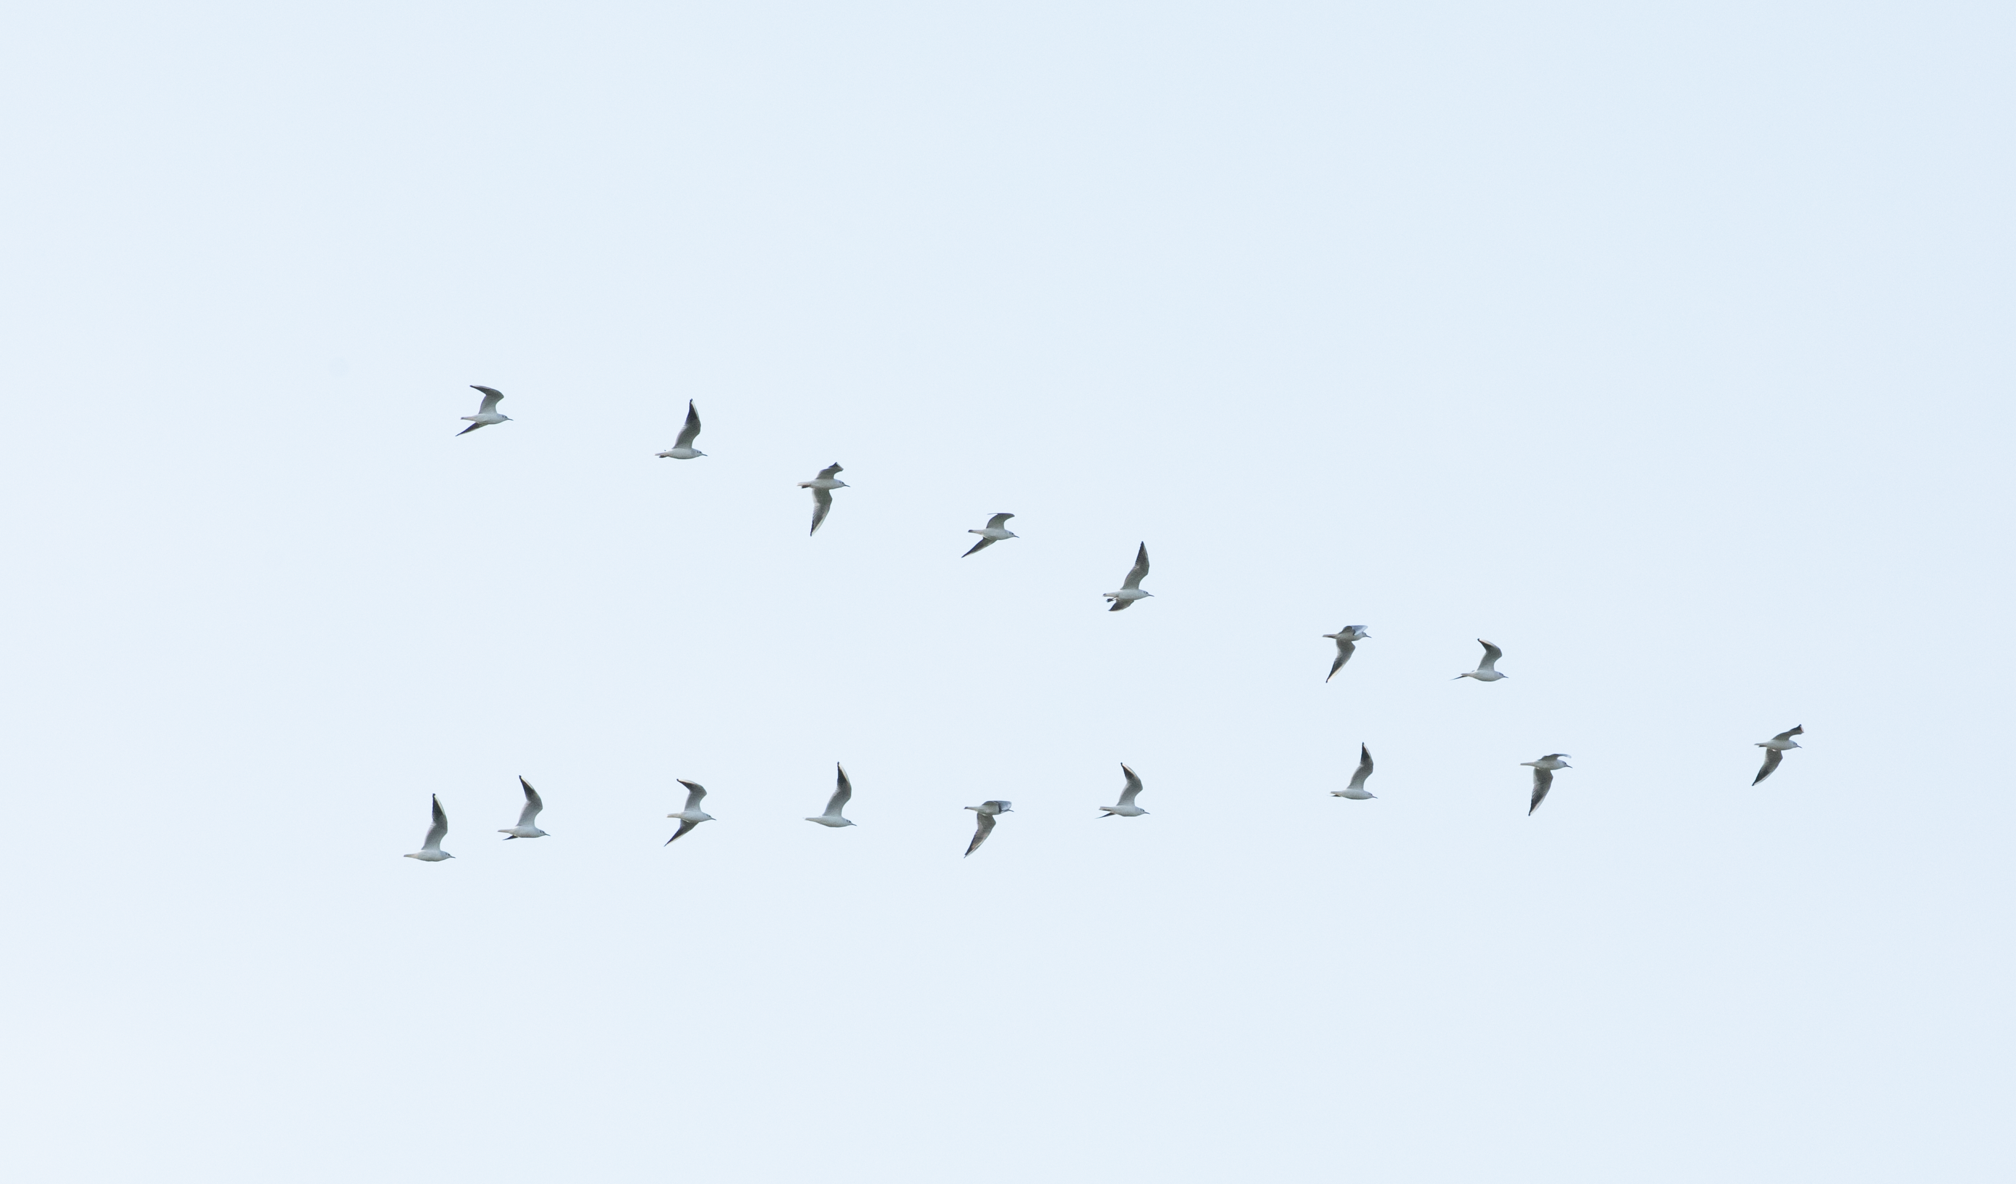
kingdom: Animalia
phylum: Chordata
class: Aves
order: Charadriiformes
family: Laridae
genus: Chroicocephalus
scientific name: Chroicocephalus ridibundus
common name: Black-headed gull
